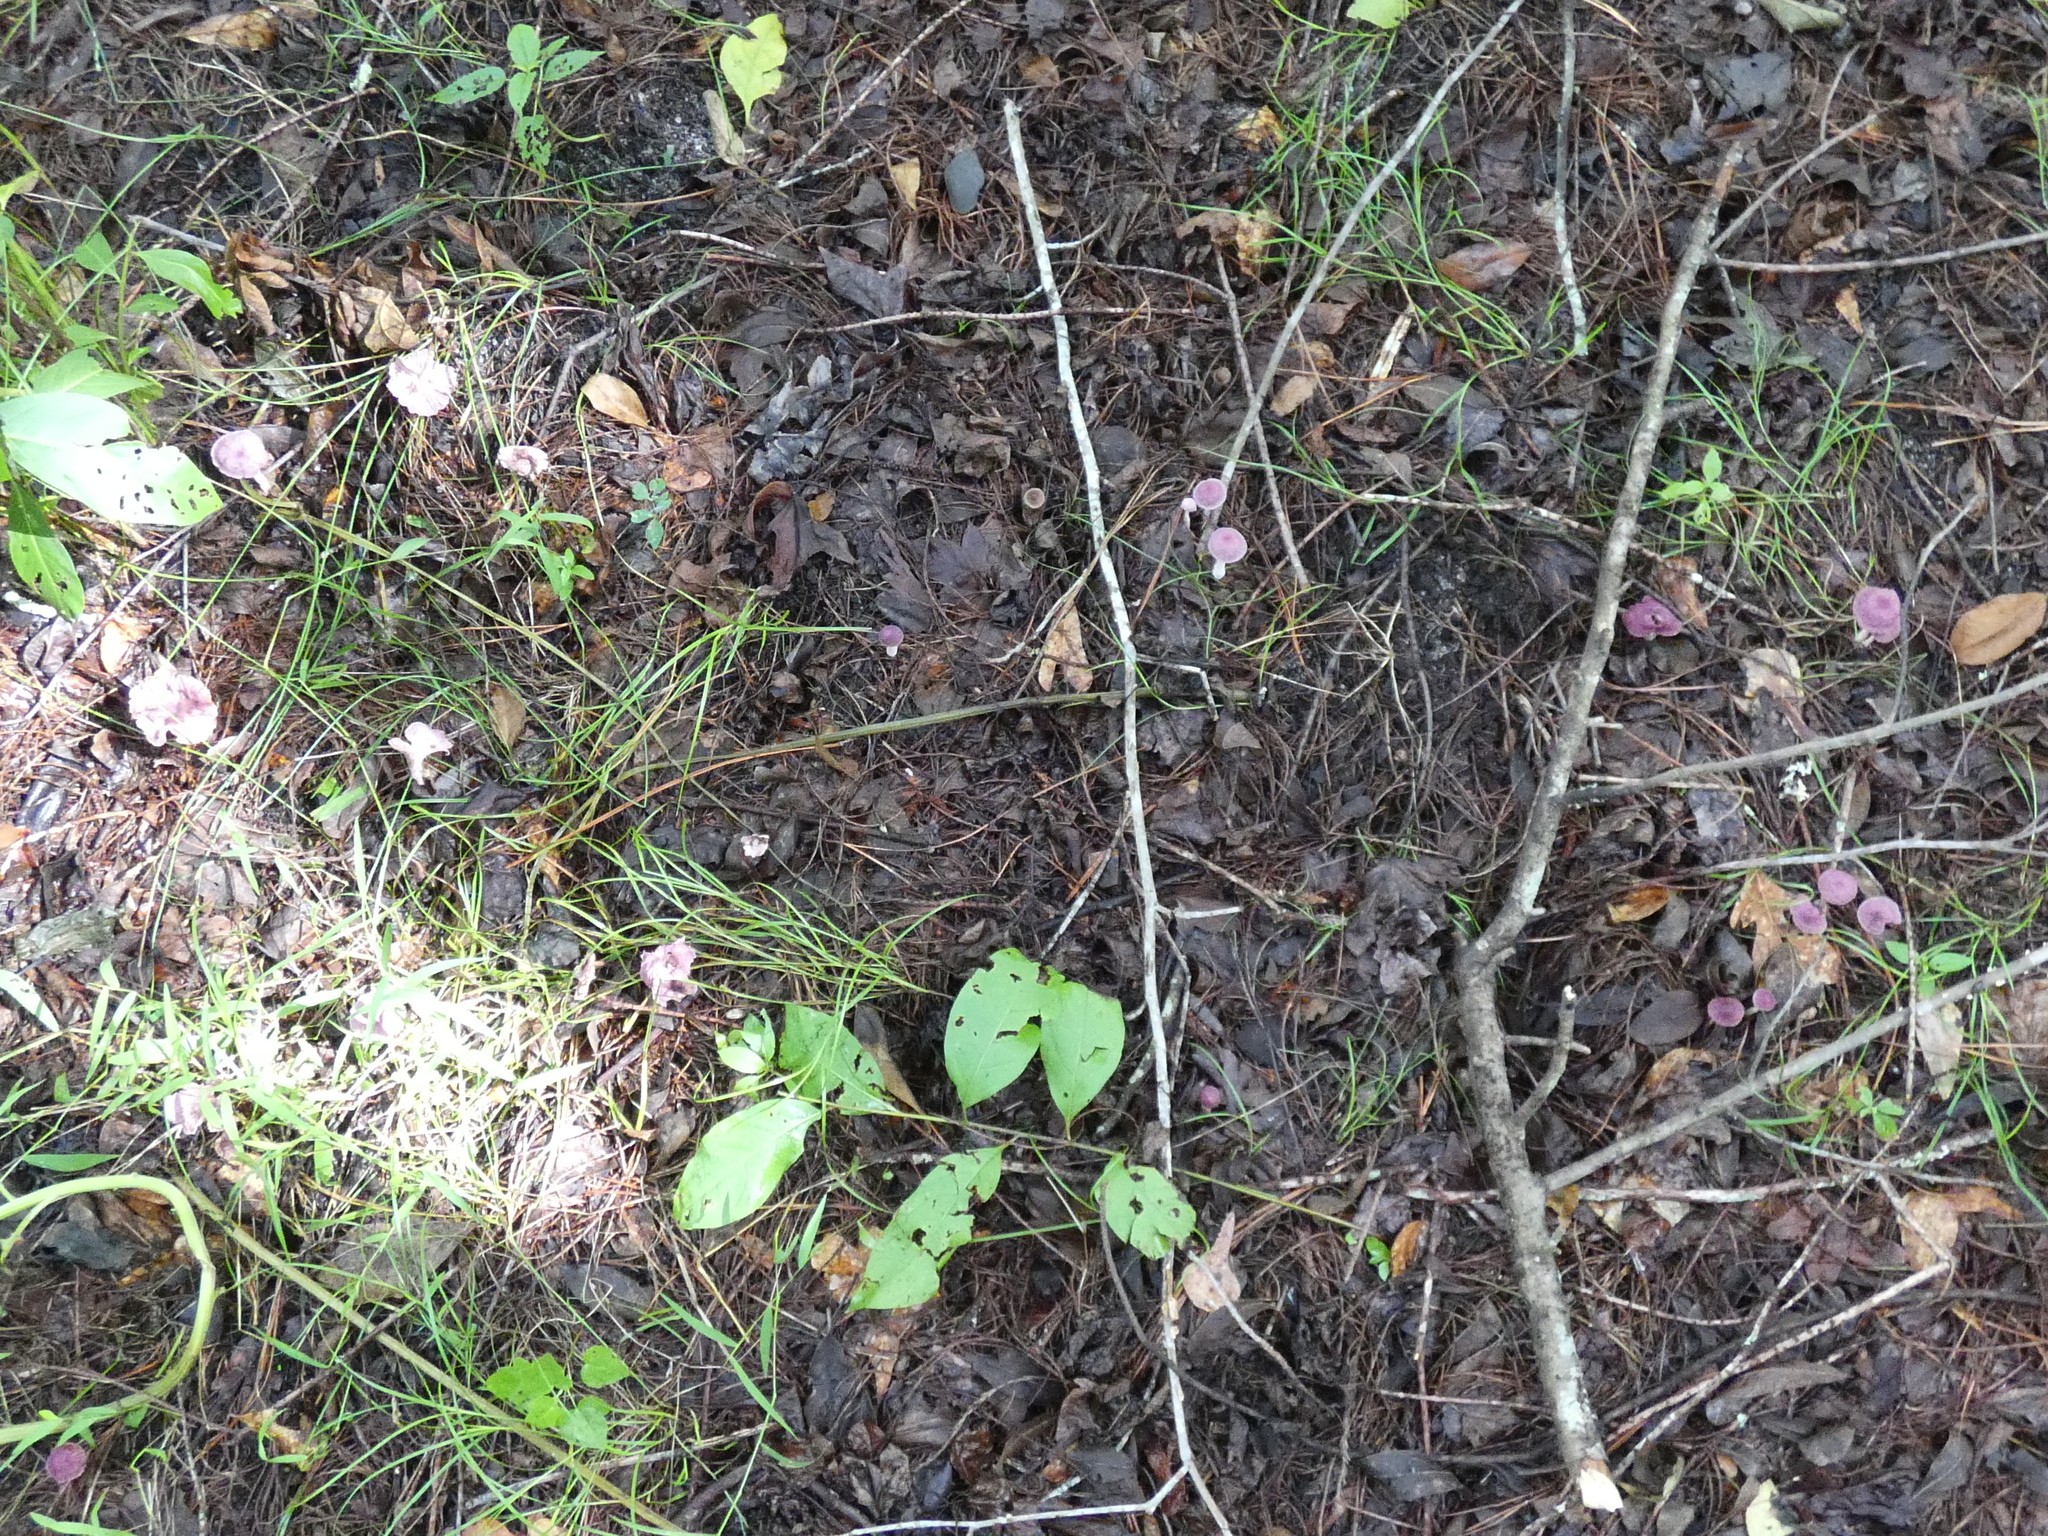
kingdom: Fungi
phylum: Basidiomycota
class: Agaricomycetes
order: Agaricales
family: Omphalotaceae
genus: Gymnopus
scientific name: Gymnopus iocephalus
